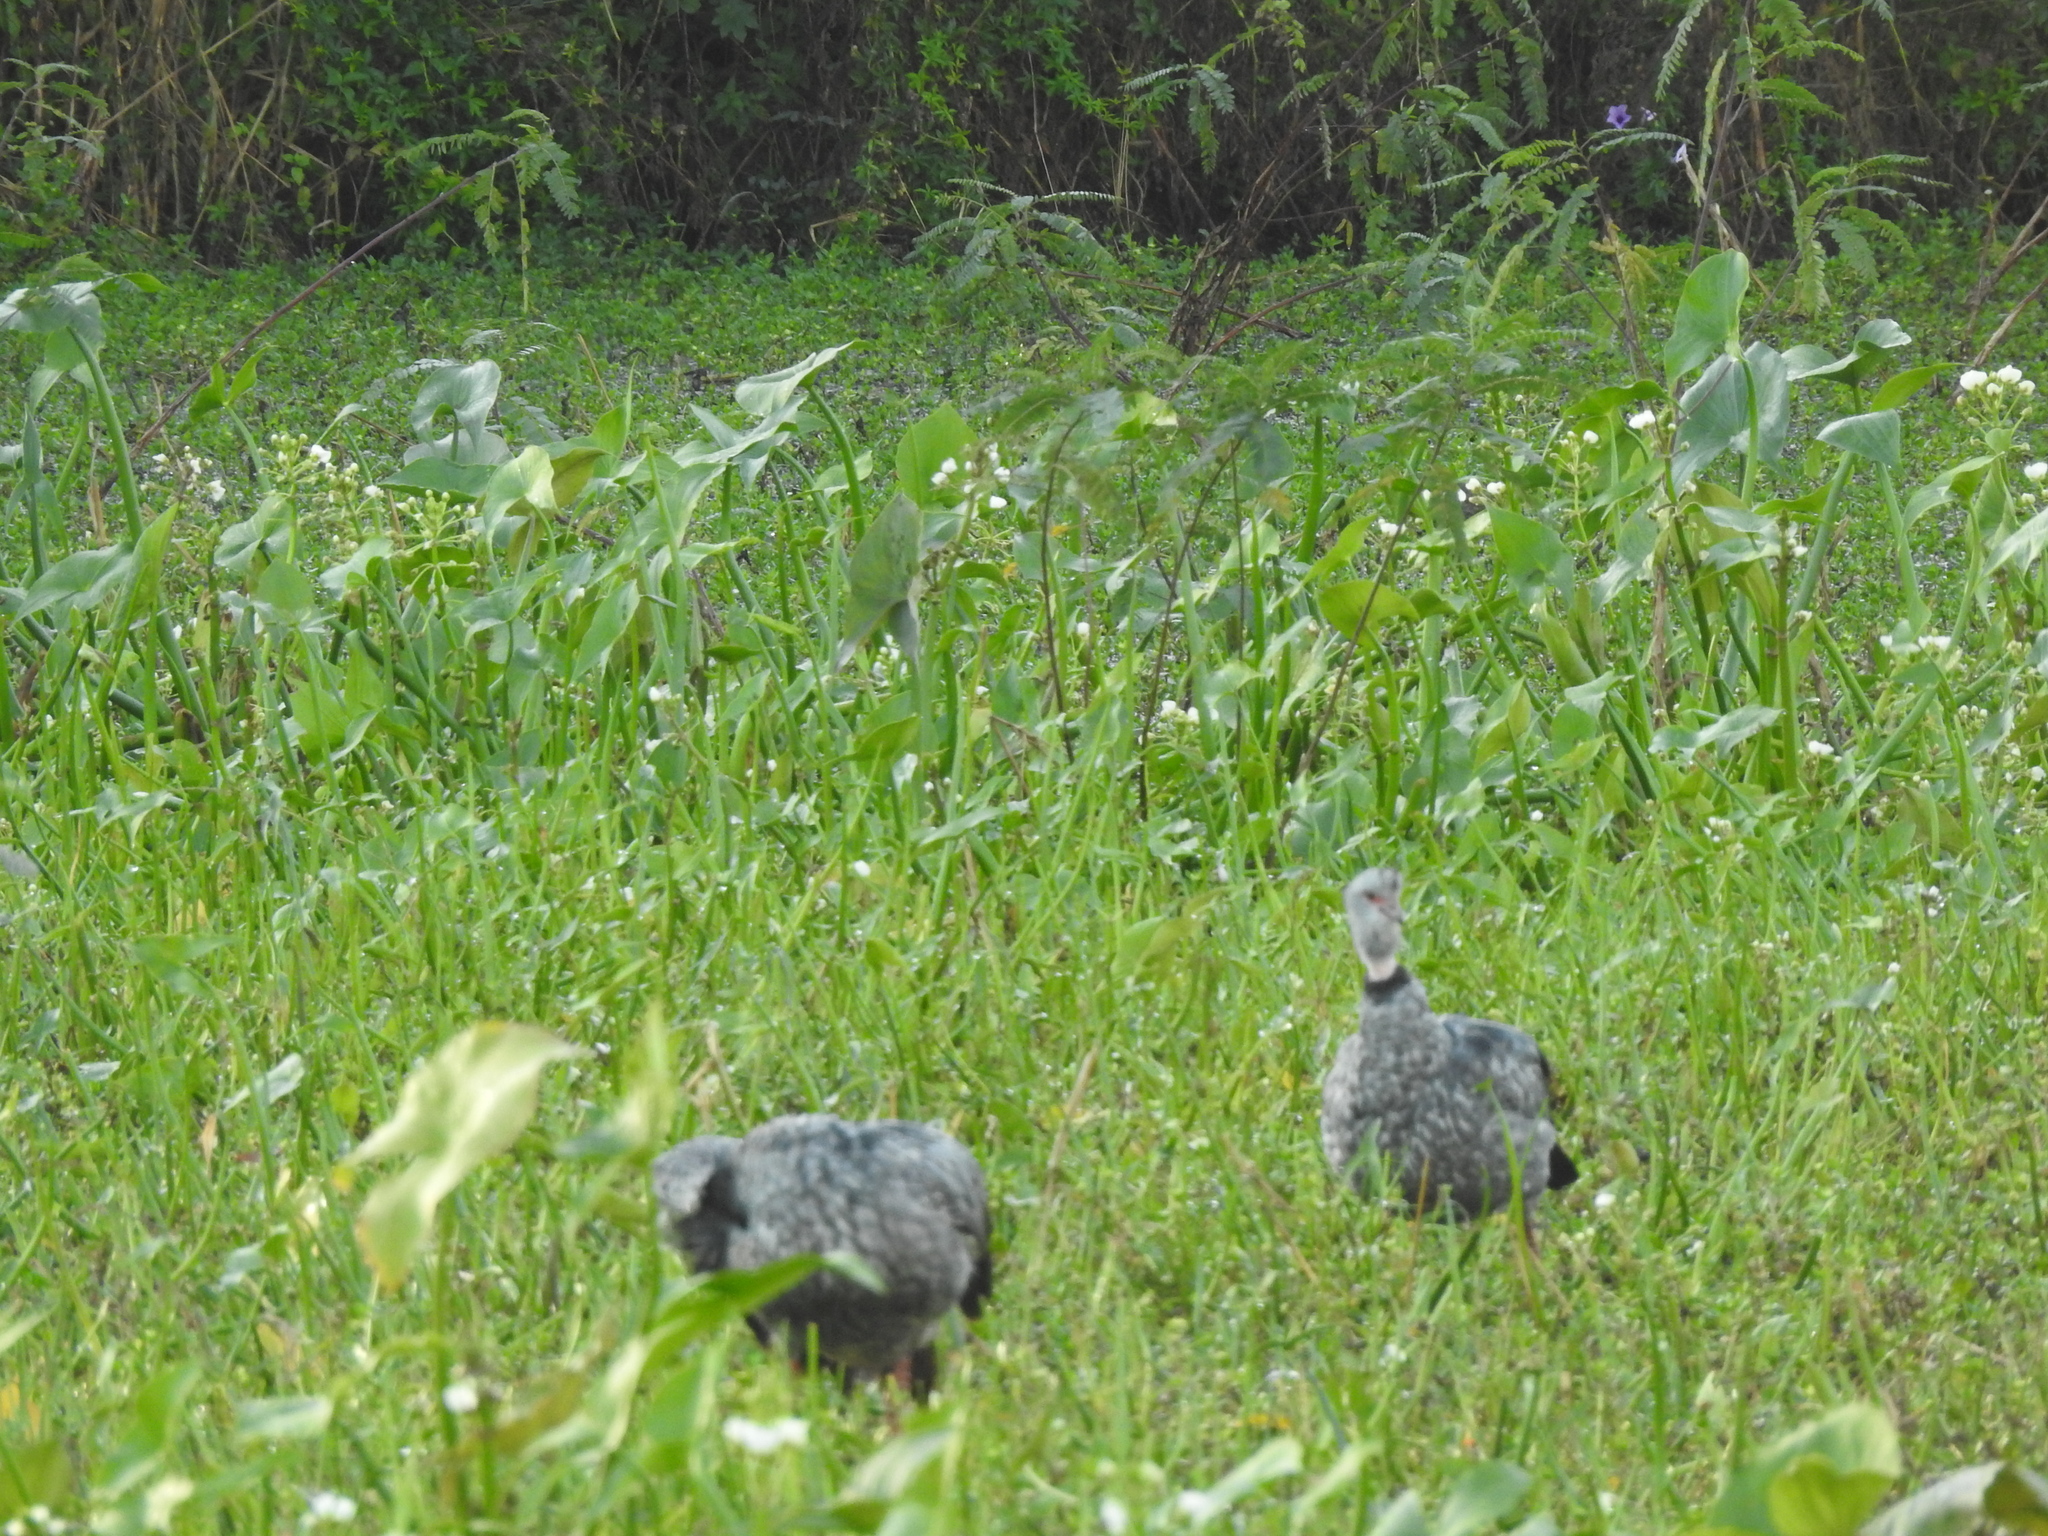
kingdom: Animalia
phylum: Chordata
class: Aves
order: Anseriformes
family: Anhimidae
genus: Chauna
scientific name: Chauna torquata
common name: Southern screamer
